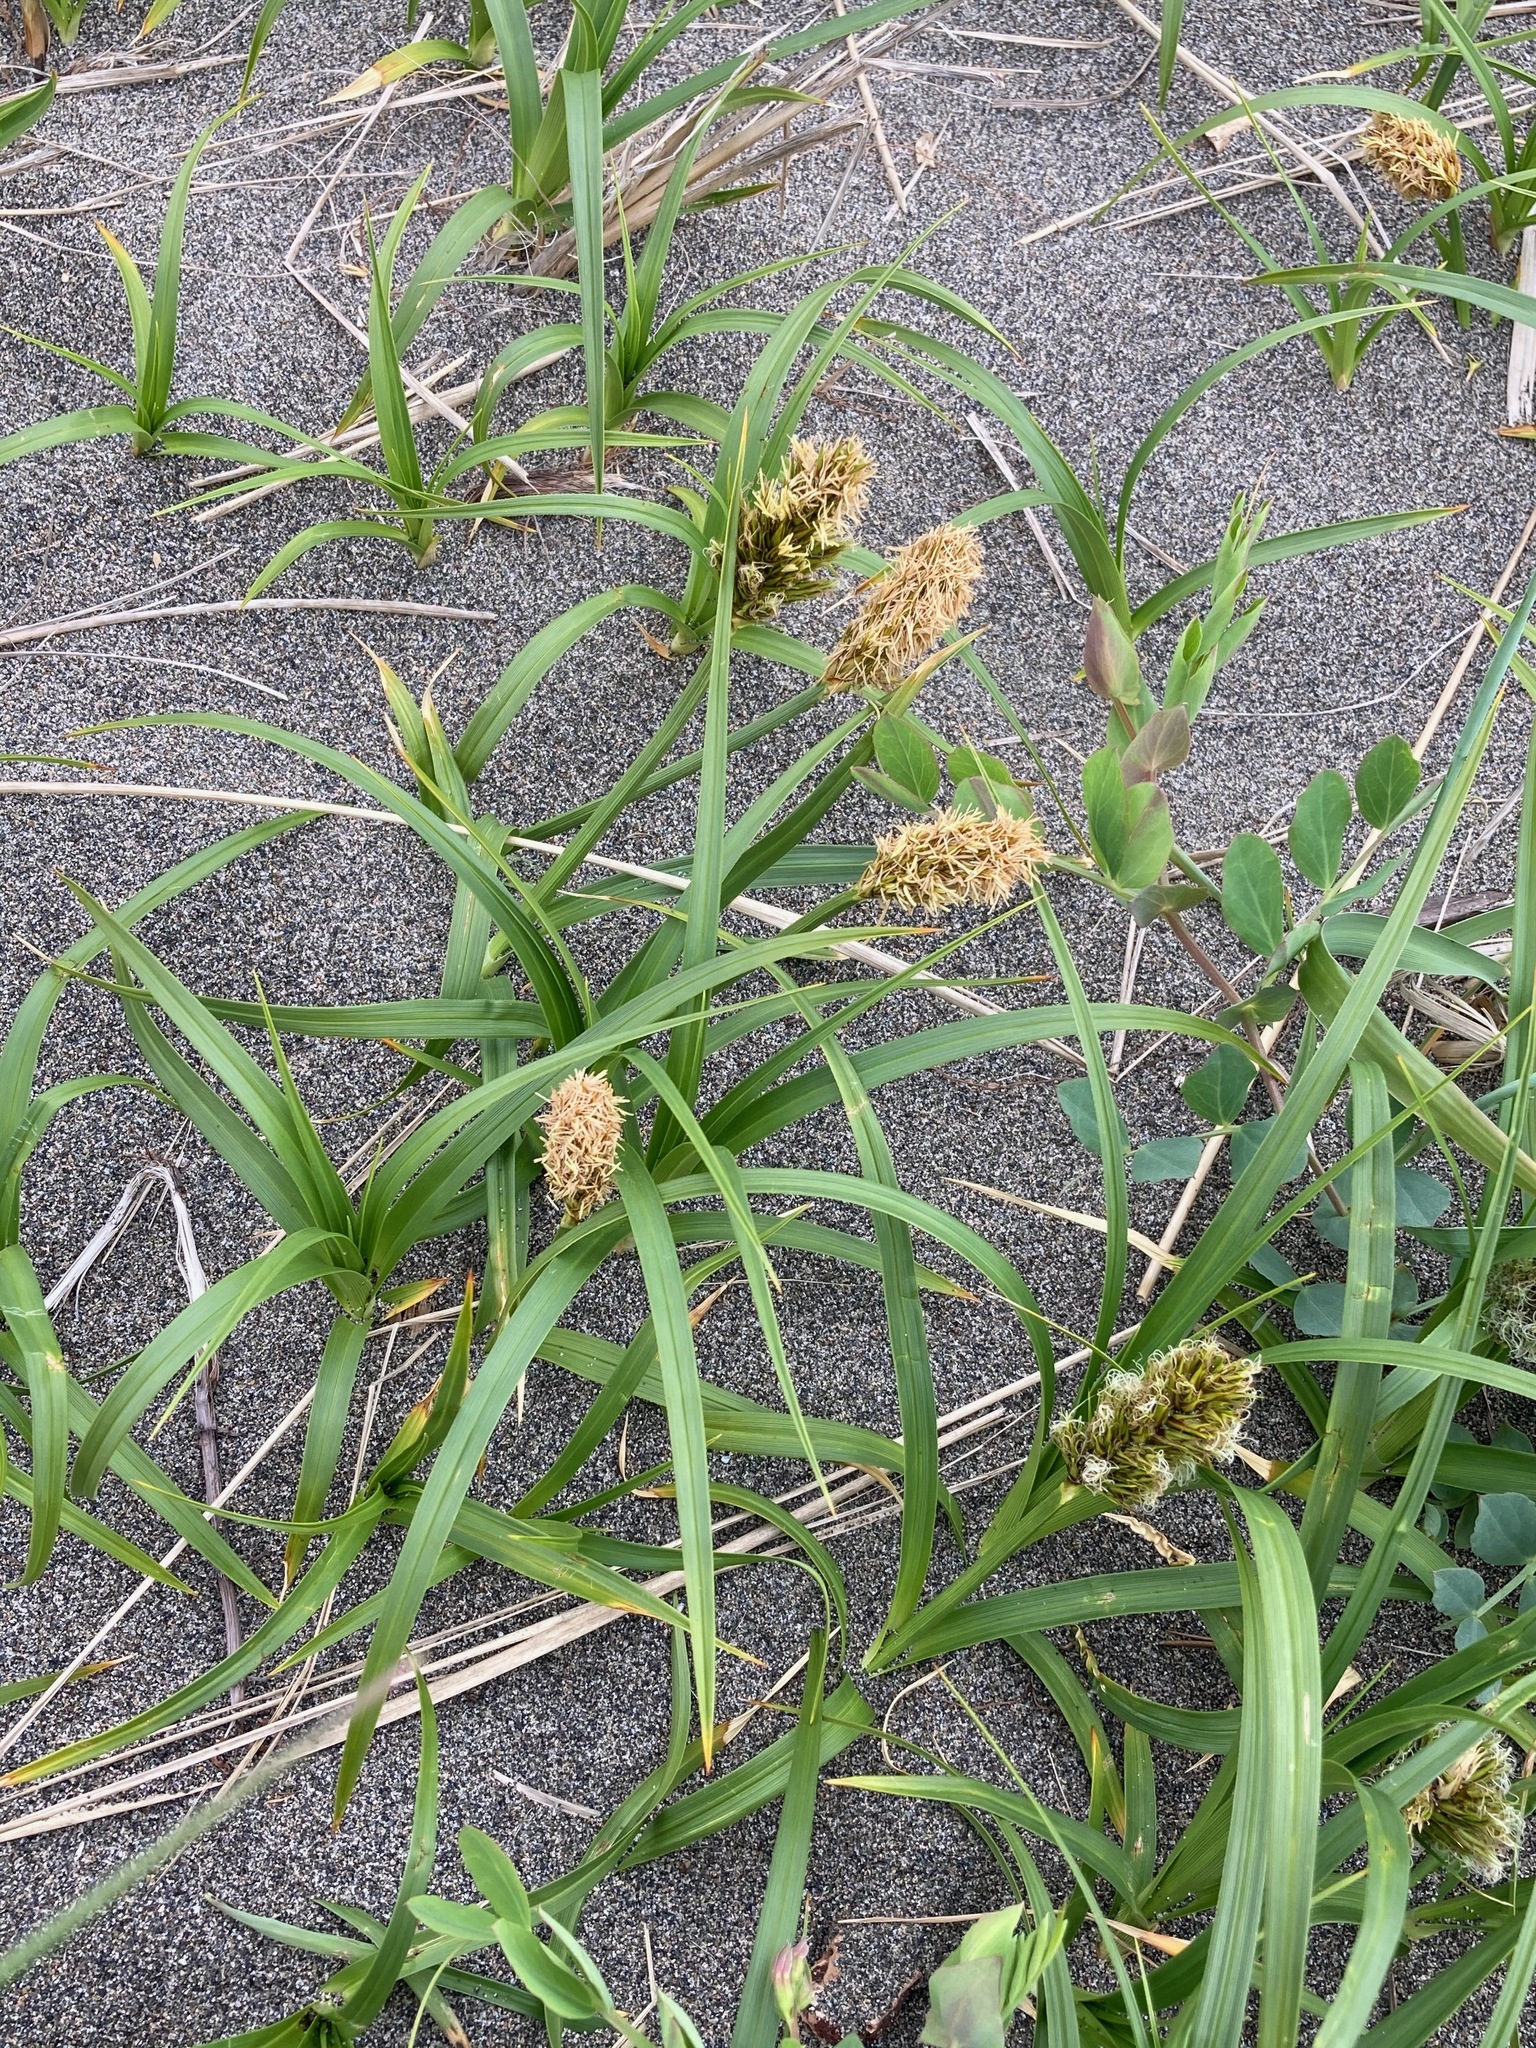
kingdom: Plantae
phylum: Tracheophyta
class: Liliopsida
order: Poales
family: Cyperaceae
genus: Carex
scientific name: Carex macrocephala
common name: Large-head sedge
